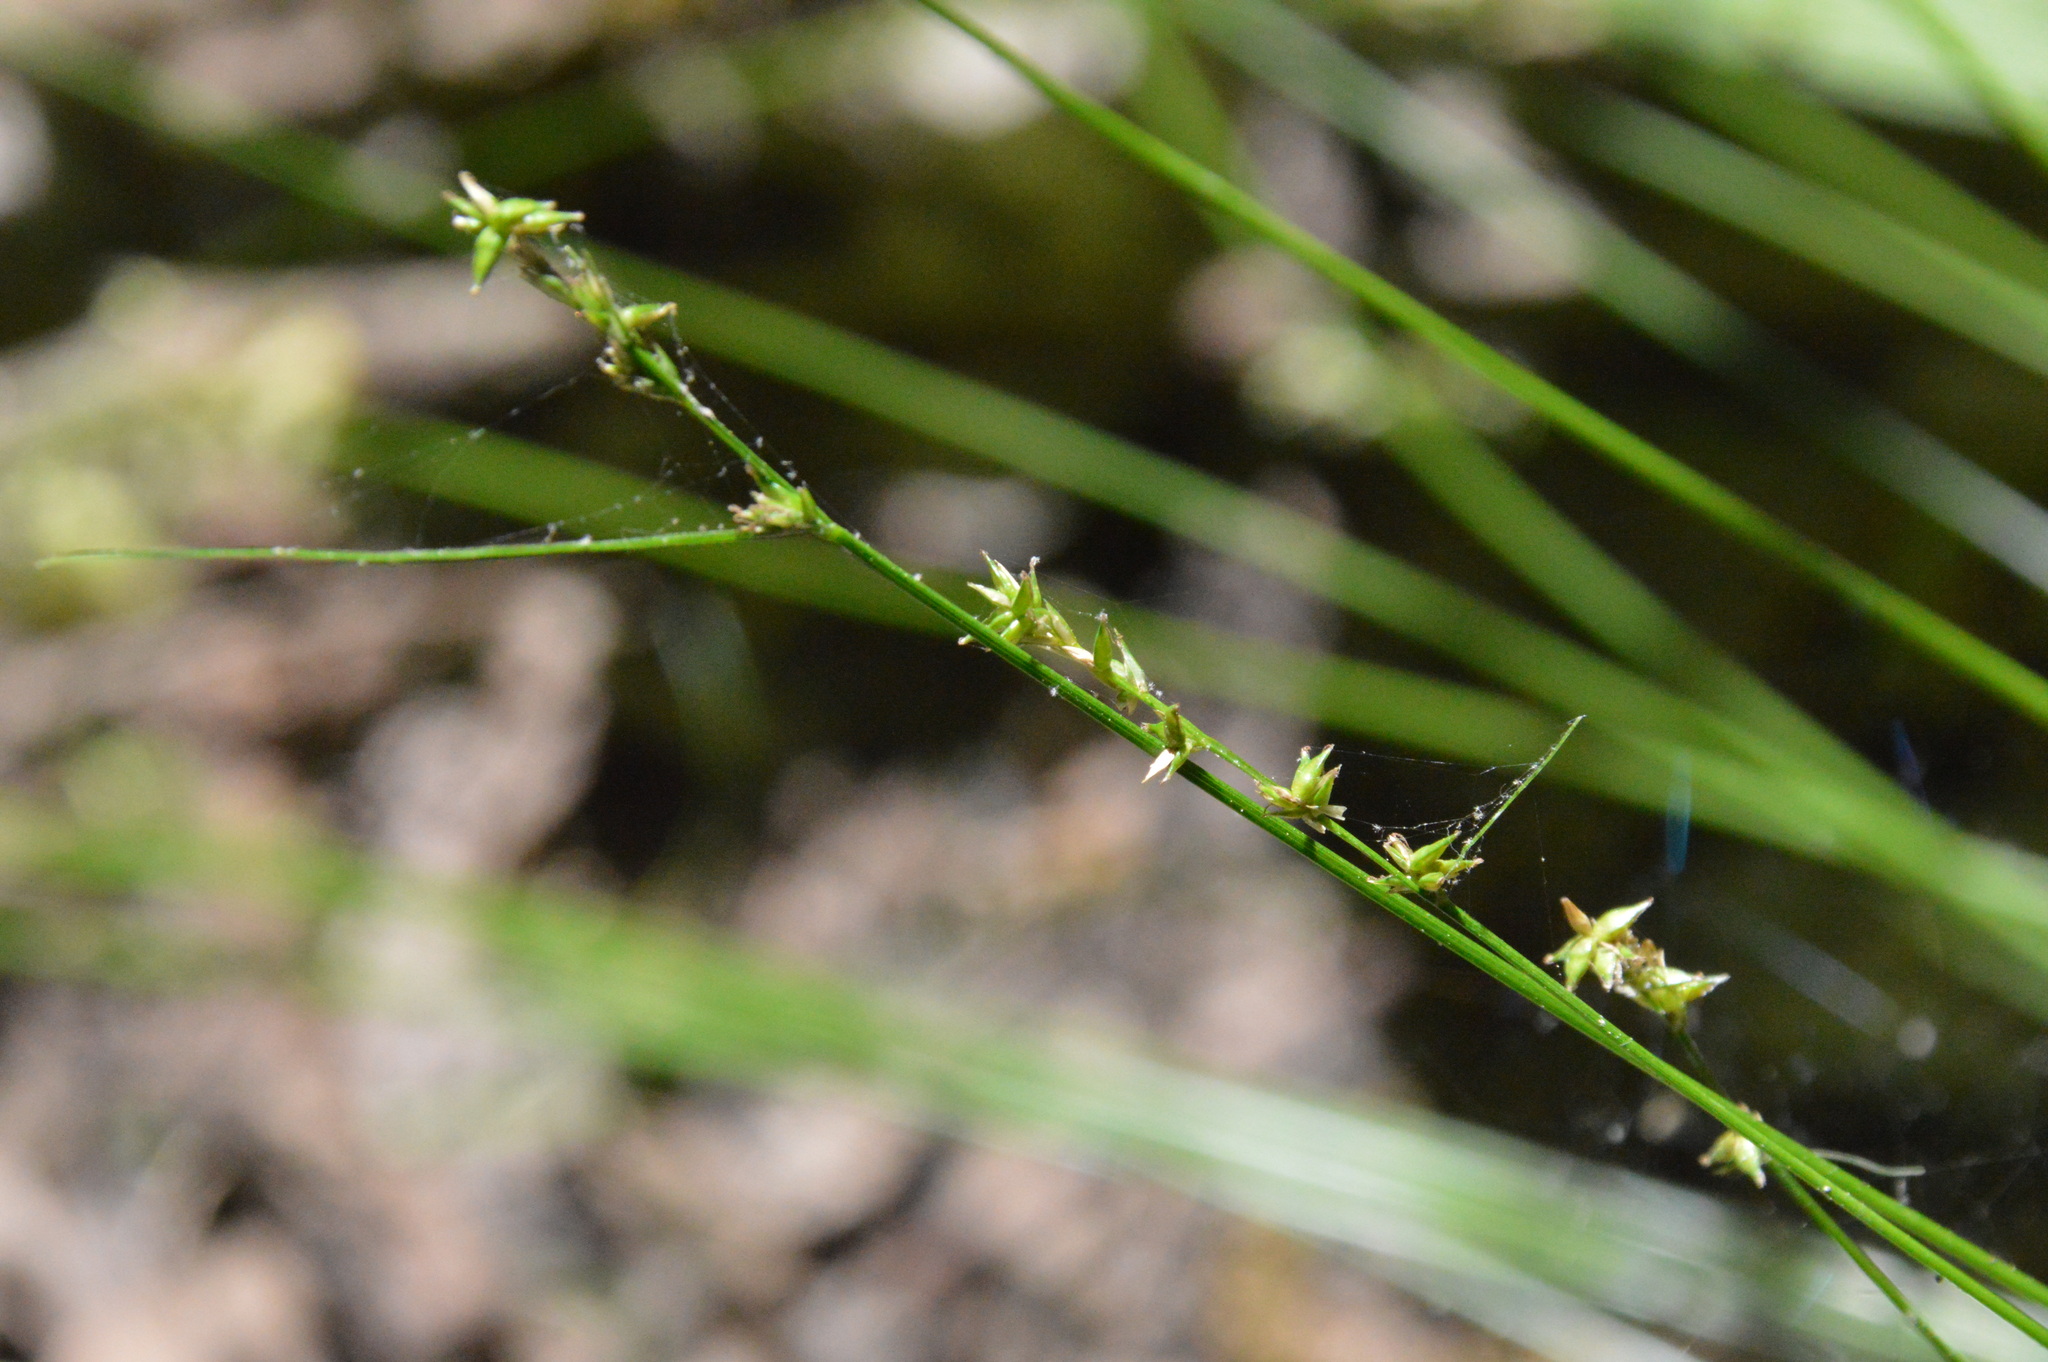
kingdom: Plantae
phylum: Tracheophyta
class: Liliopsida
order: Poales
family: Cyperaceae
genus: Carex
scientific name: Carex texensis
